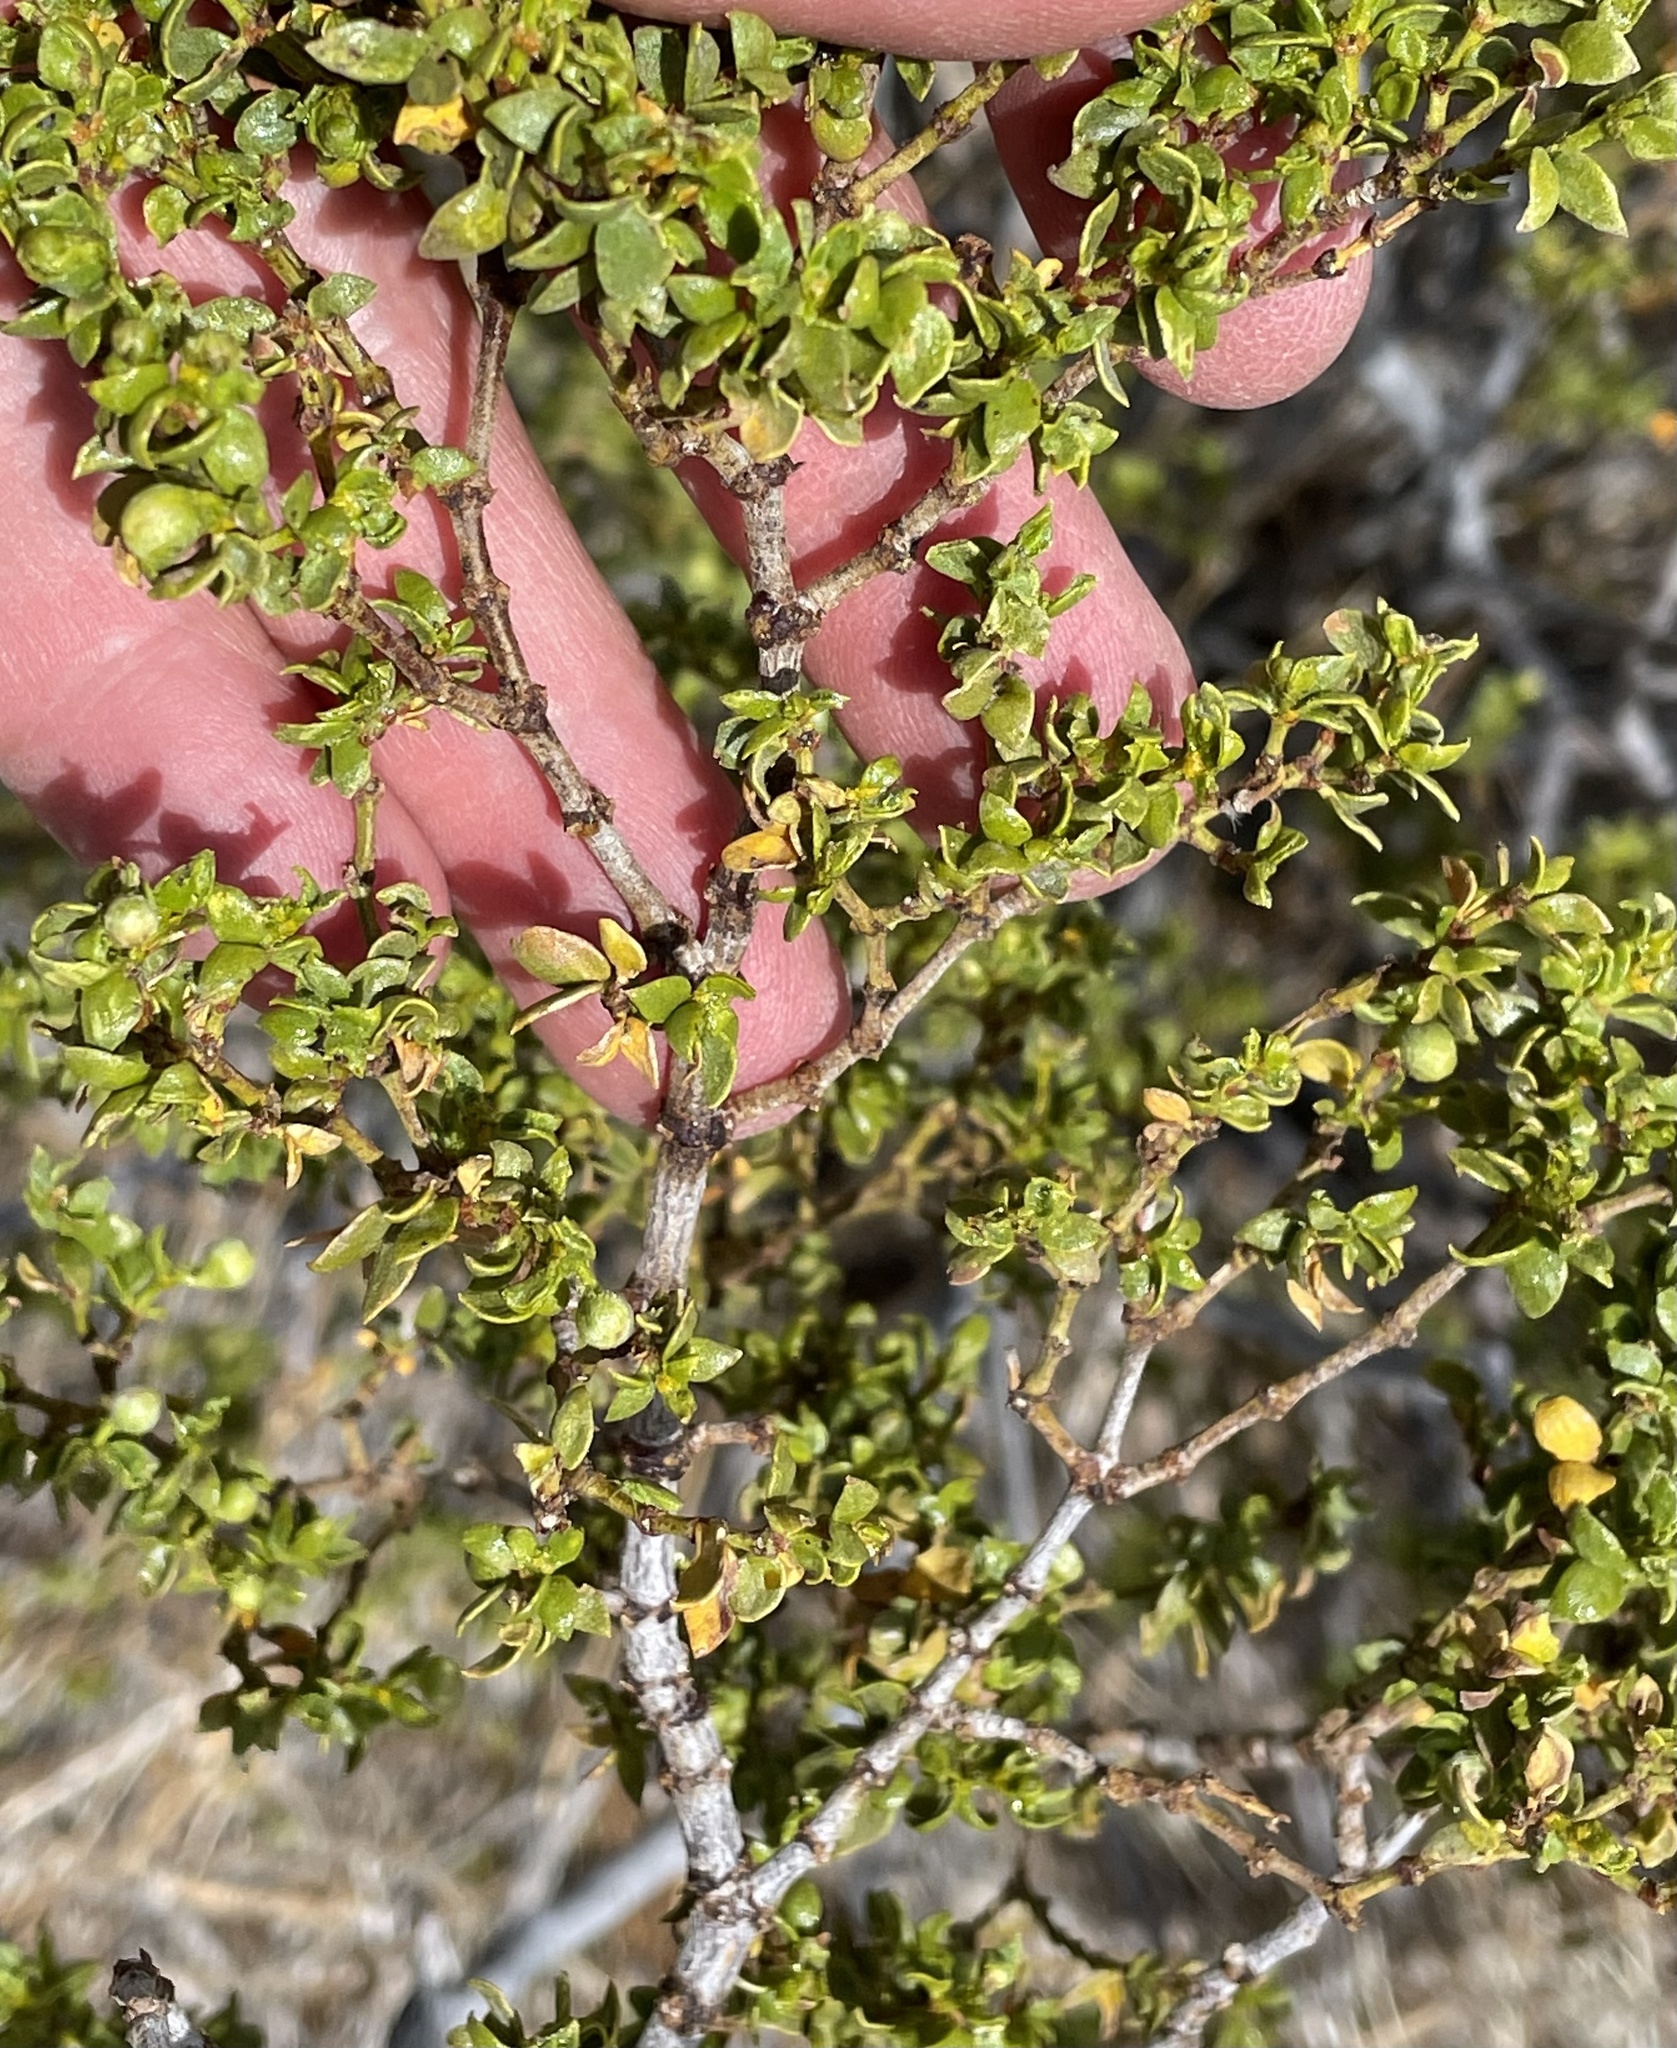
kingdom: Plantae
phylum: Tracheophyta
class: Magnoliopsida
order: Zygophyllales
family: Zygophyllaceae
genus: Larrea
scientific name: Larrea tridentata
